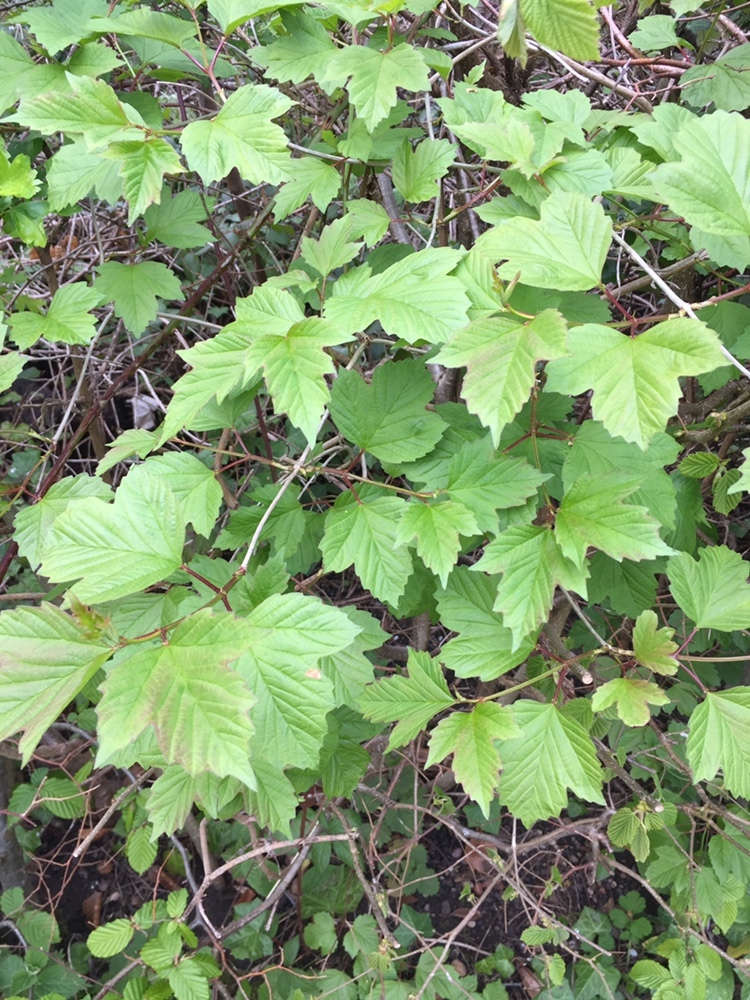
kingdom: Plantae
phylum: Tracheophyta
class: Magnoliopsida
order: Dipsacales
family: Viburnaceae
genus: Viburnum
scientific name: Viburnum opulus
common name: Guelder-rose
